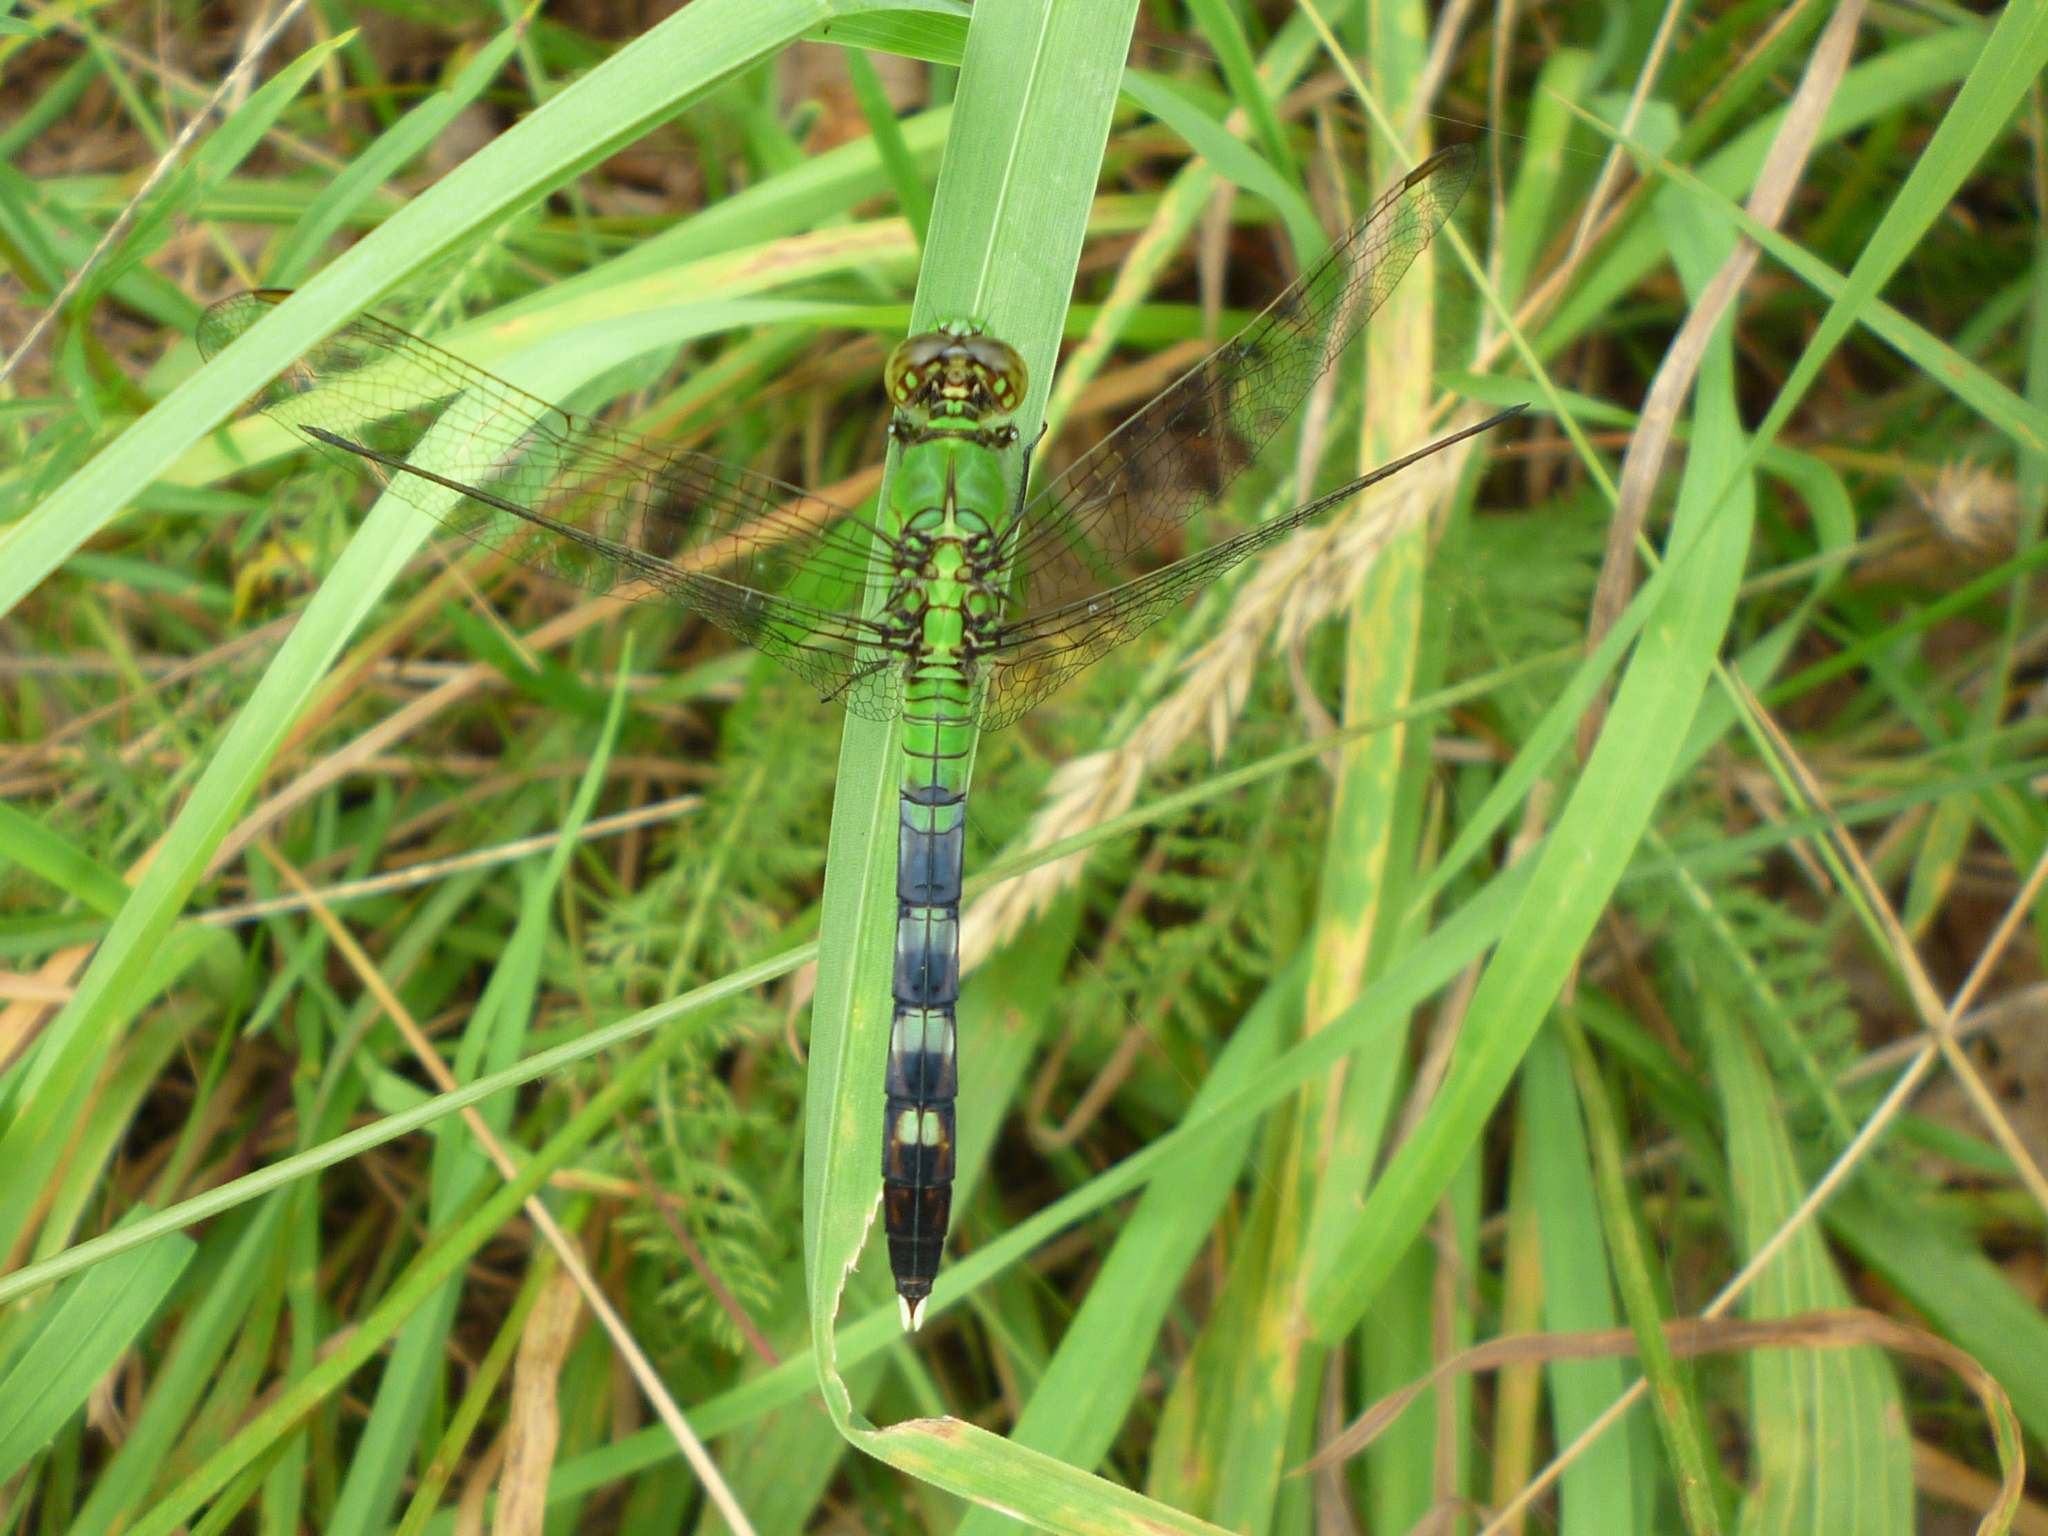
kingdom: Animalia
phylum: Arthropoda
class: Insecta
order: Odonata
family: Libellulidae
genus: Erythemis
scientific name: Erythemis simplicicollis
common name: Eastern pondhawk
